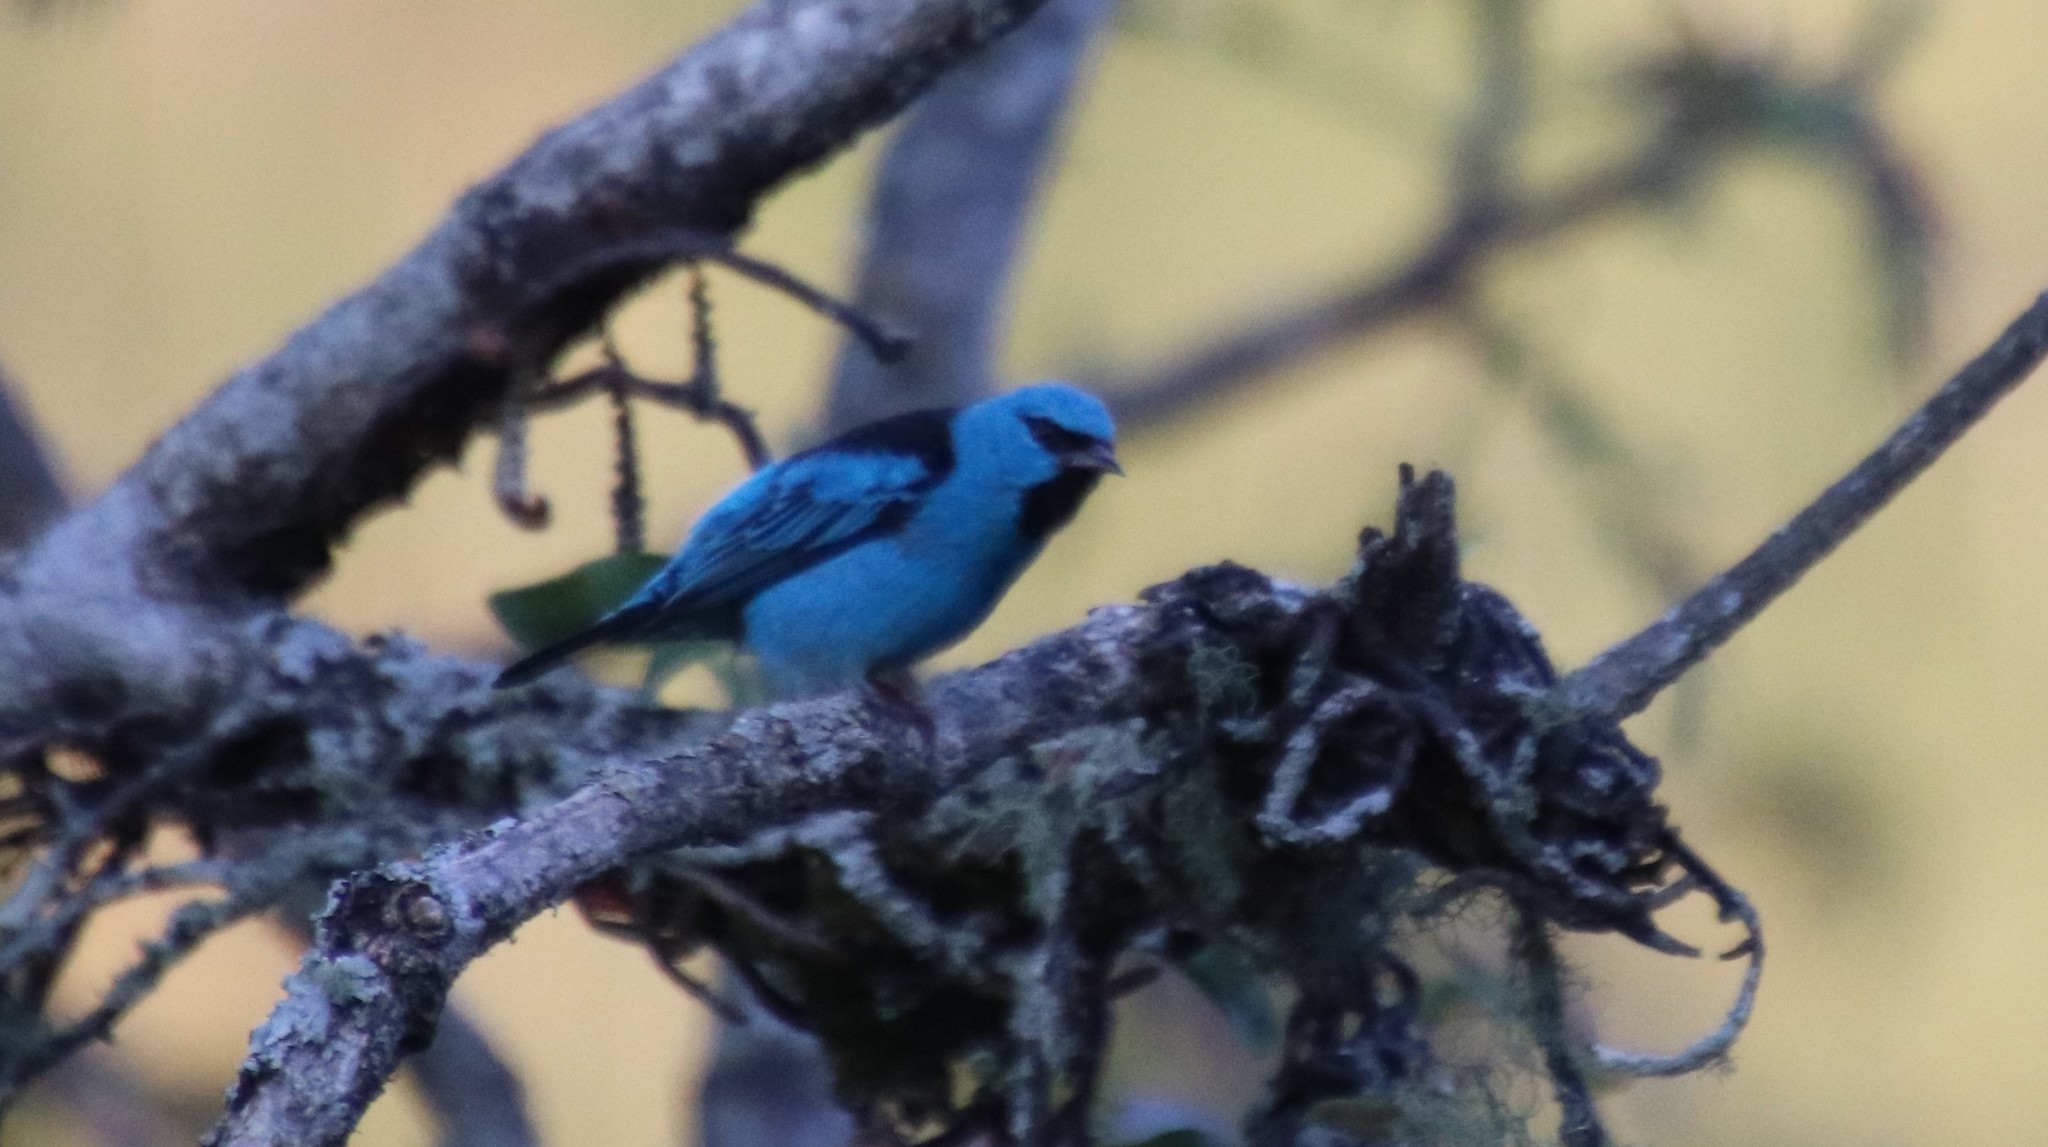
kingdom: Animalia
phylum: Chordata
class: Aves
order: Passeriformes
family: Thraupidae
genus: Dacnis
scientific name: Dacnis cayana
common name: Blue dacnis
